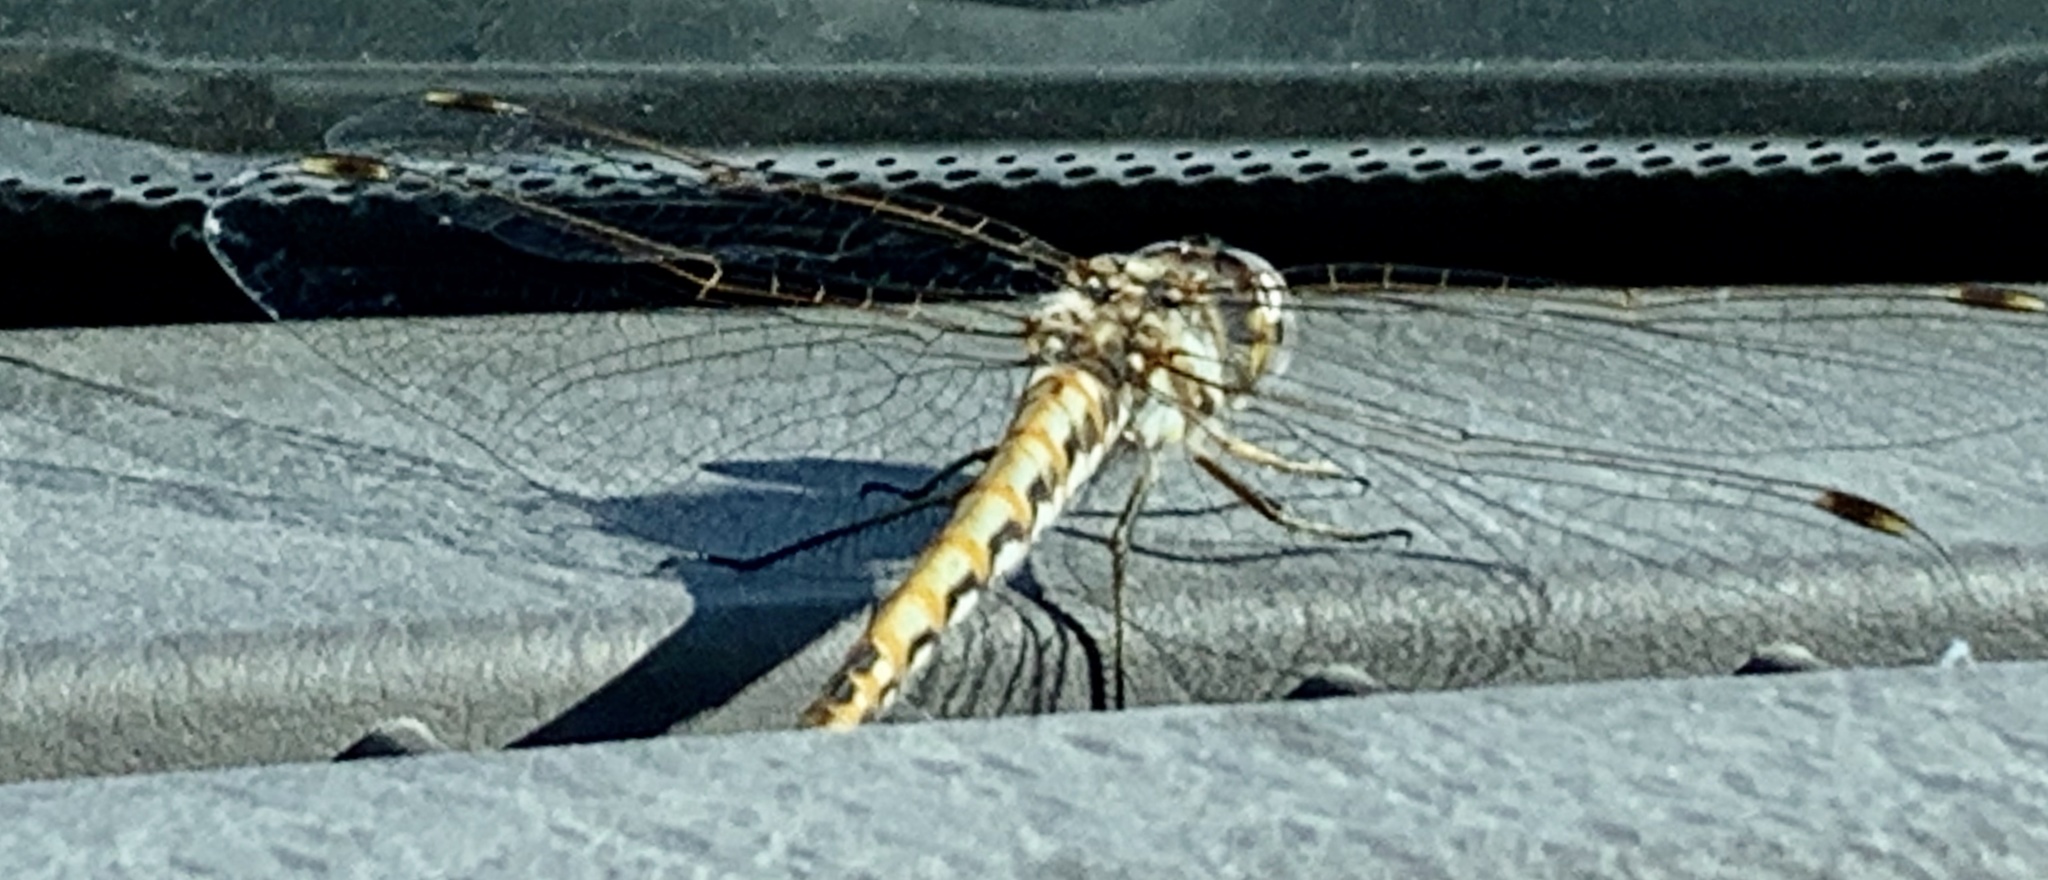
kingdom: Animalia
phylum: Arthropoda
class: Insecta
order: Odonata
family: Libellulidae
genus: Sympetrum
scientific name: Sympetrum corruptum
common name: Variegated meadowhawk
